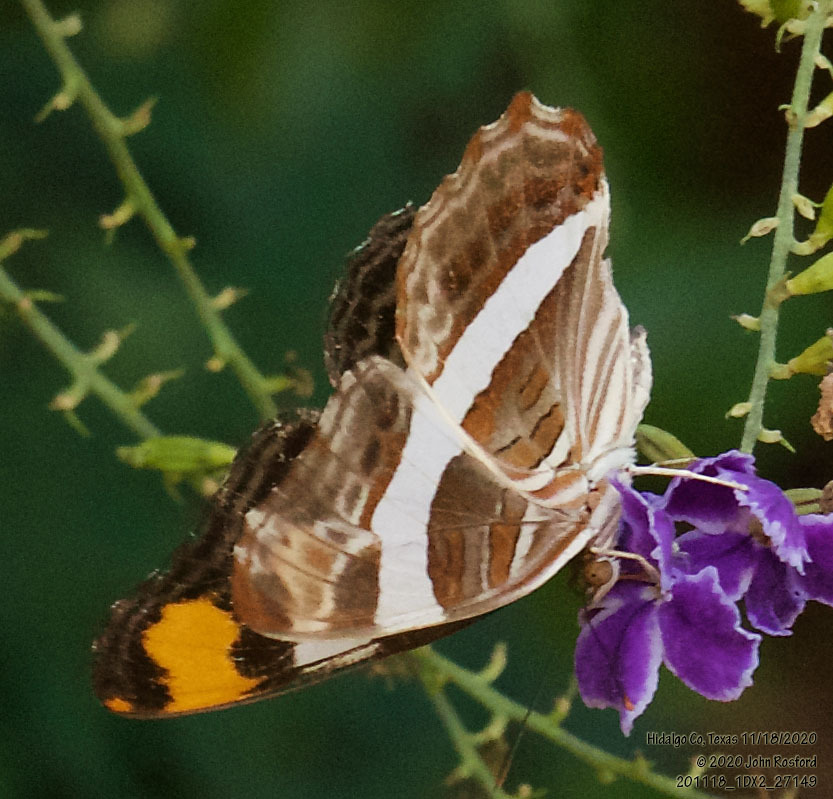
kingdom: Animalia
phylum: Arthropoda
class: Insecta
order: Lepidoptera
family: Nymphalidae
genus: Limenitis
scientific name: Limenitis fessonia
